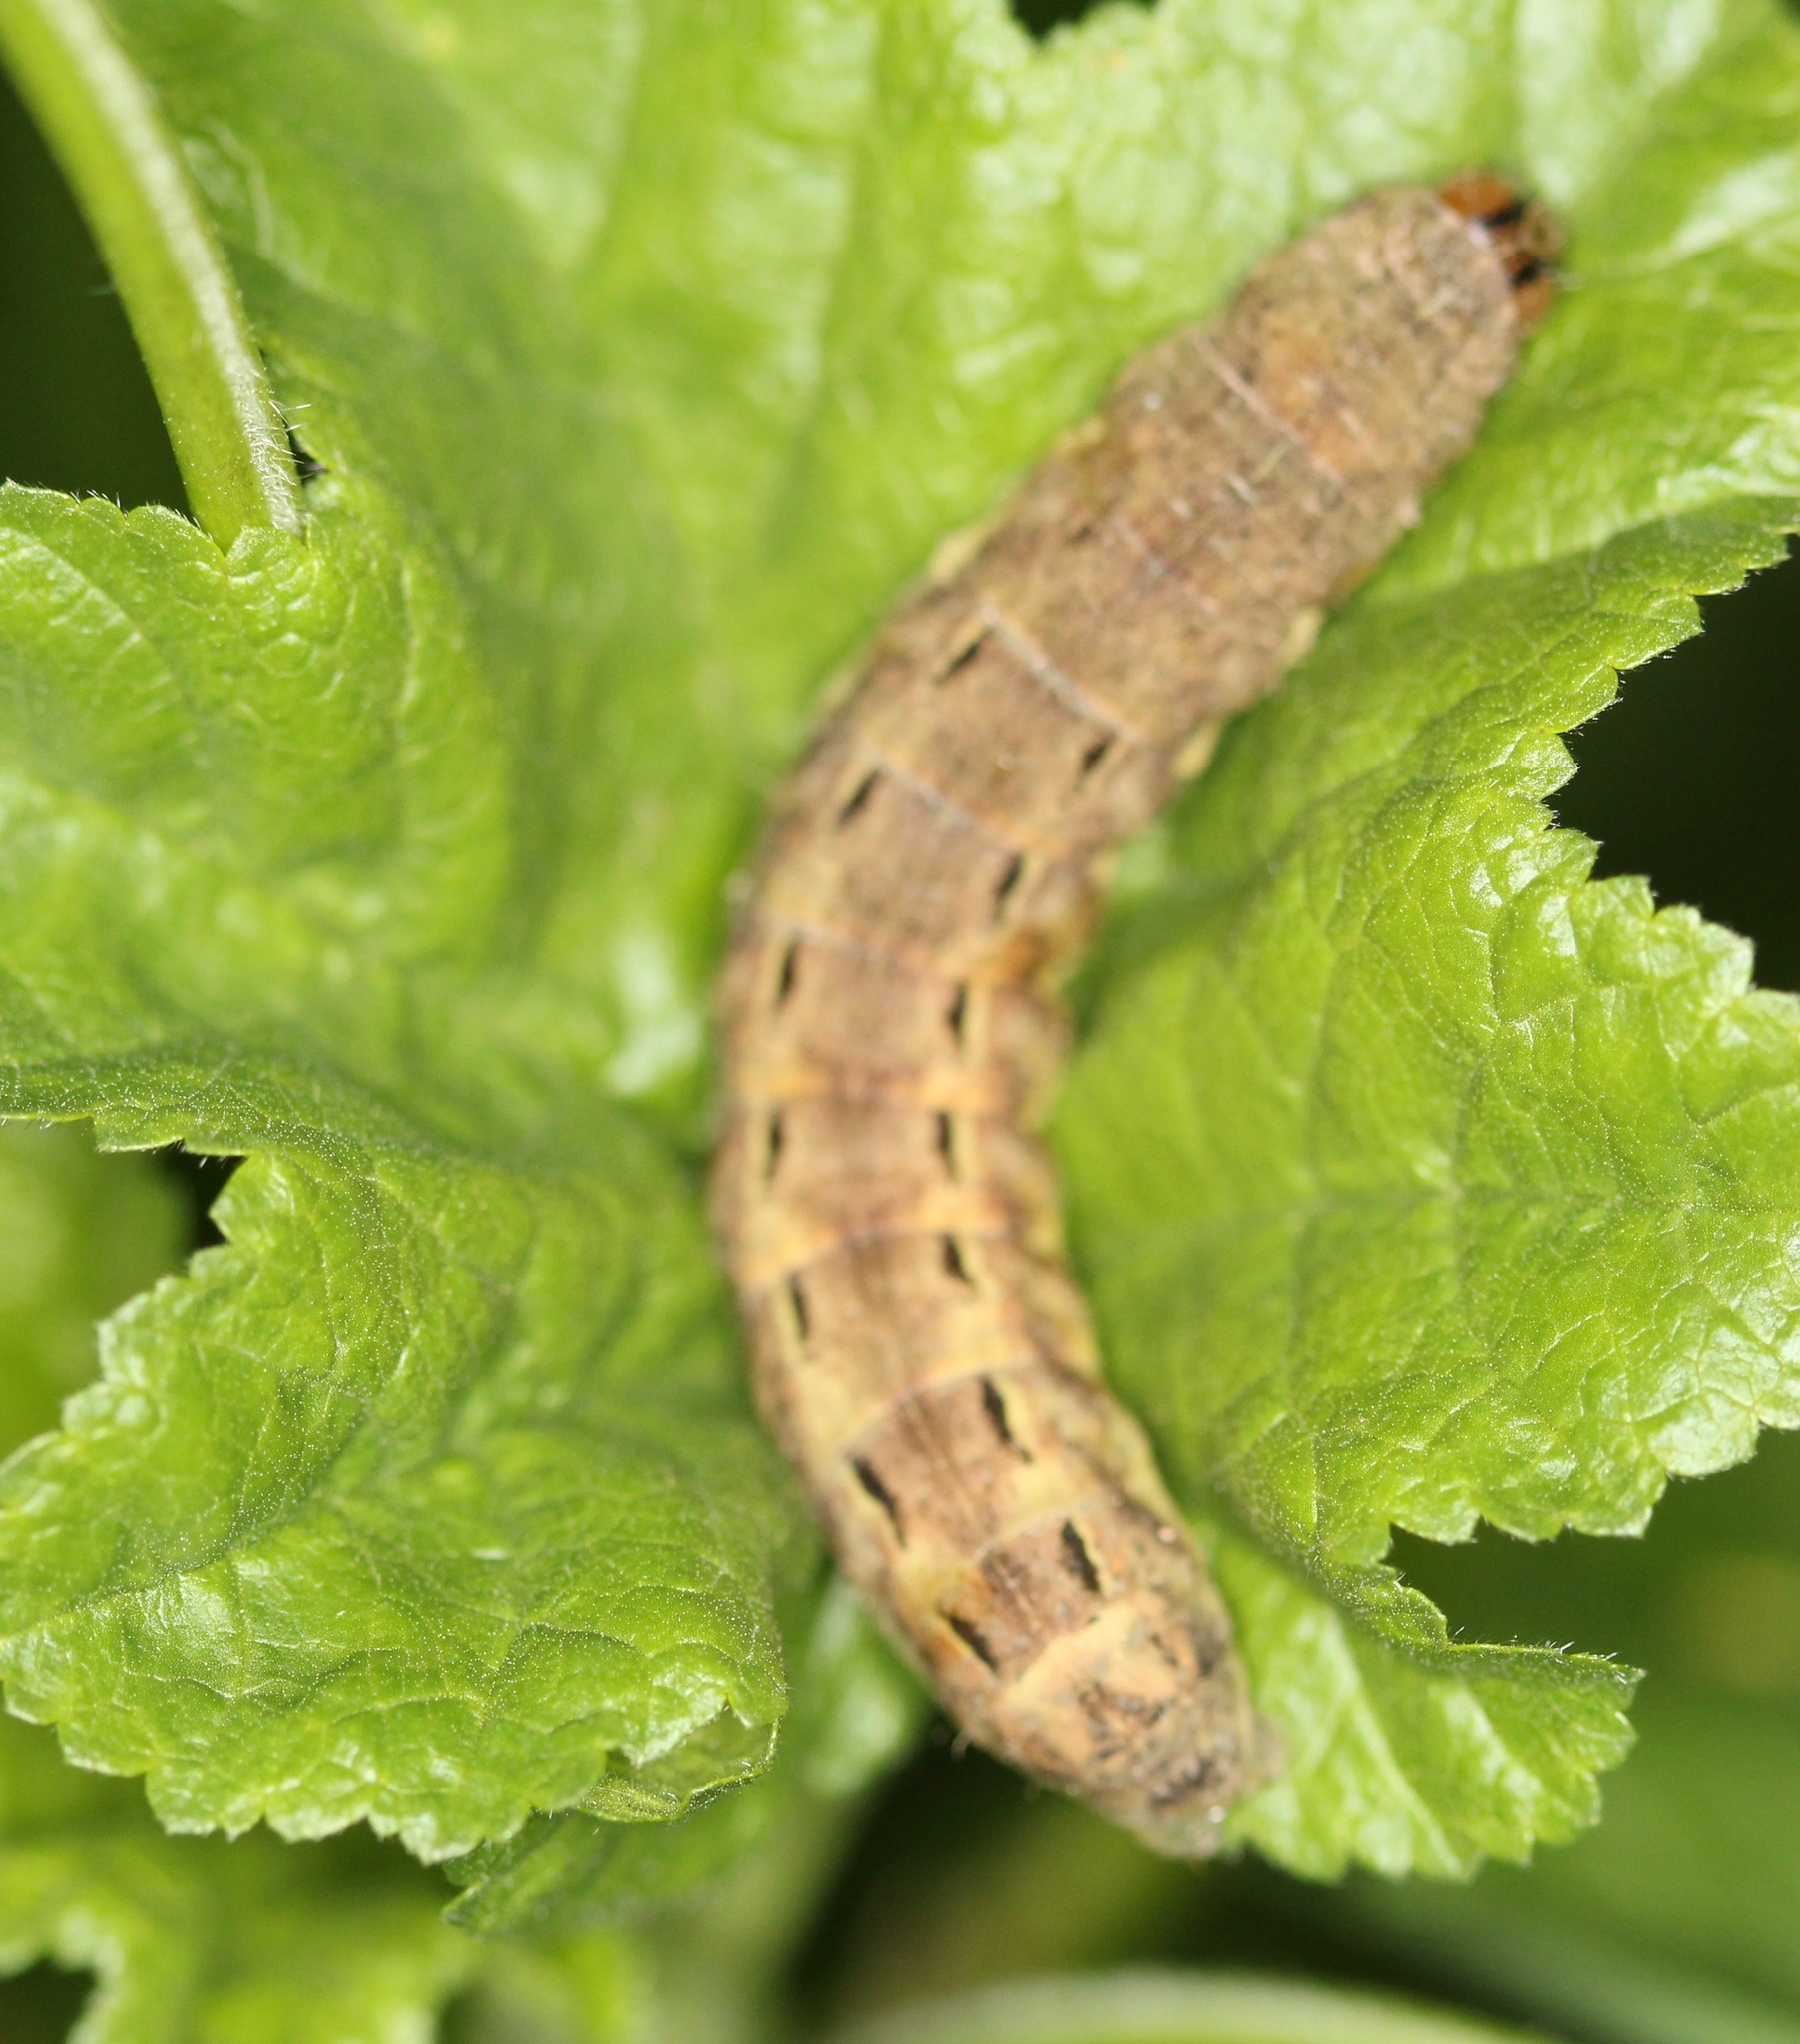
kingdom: Animalia
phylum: Arthropoda
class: Insecta
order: Lepidoptera
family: Noctuidae
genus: Noctua
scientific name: Noctua pronuba
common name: Large yellow underwing
